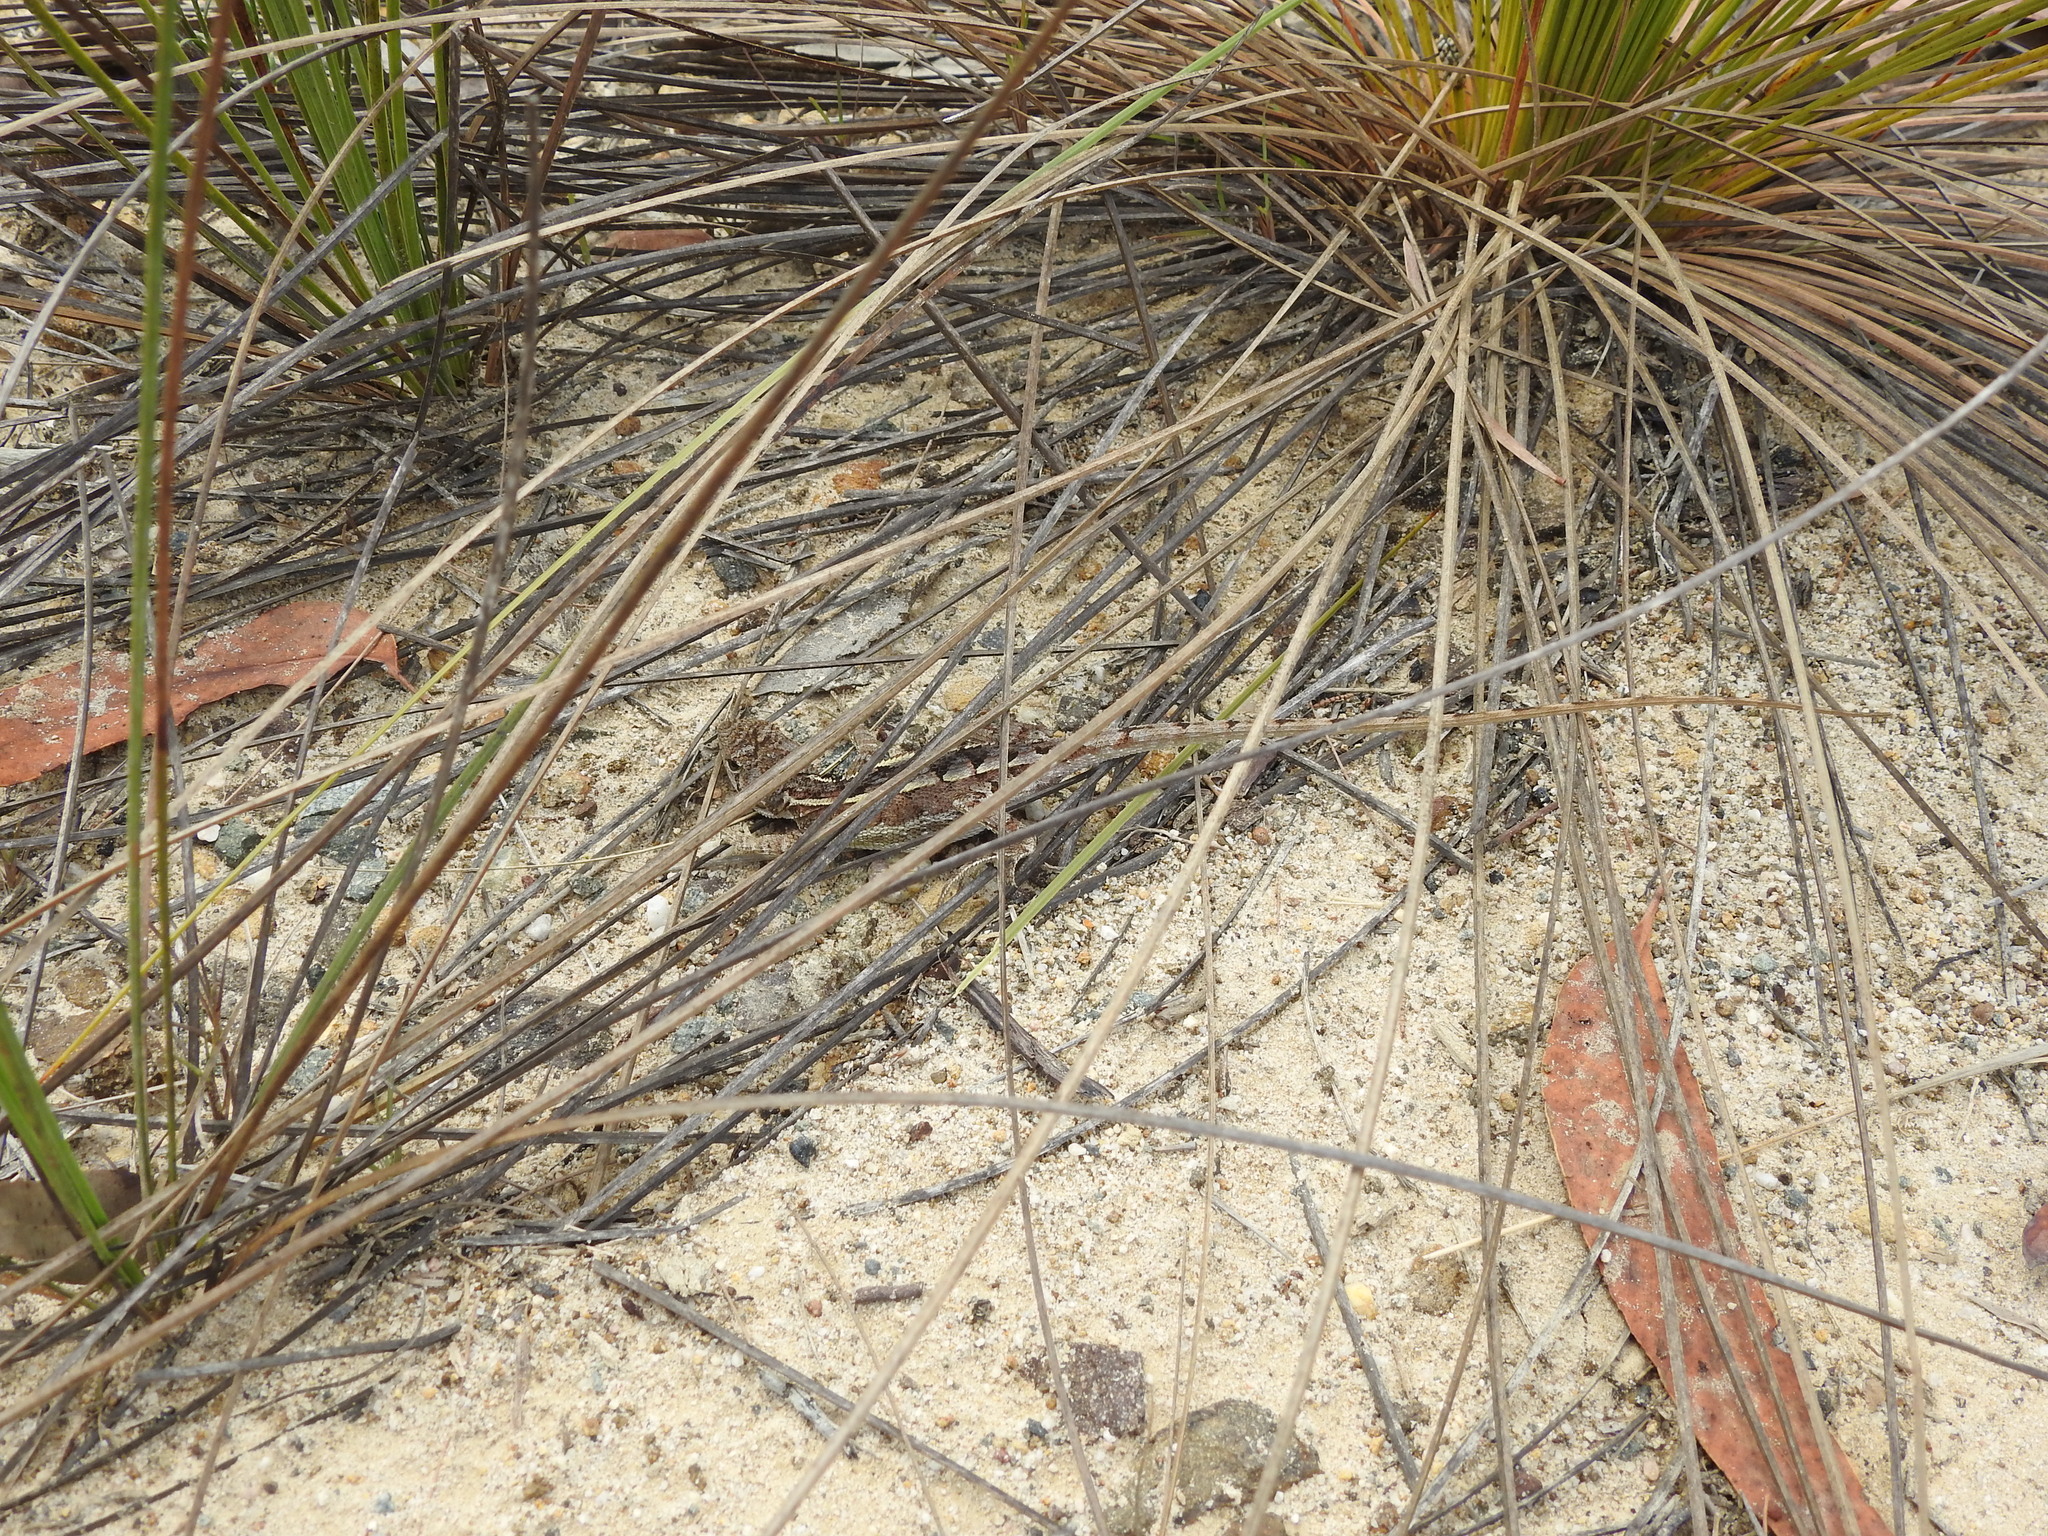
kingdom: Animalia
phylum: Chordata
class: Squamata
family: Agamidae
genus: Diporiphora
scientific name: Diporiphora nobbi
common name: Nobbi
